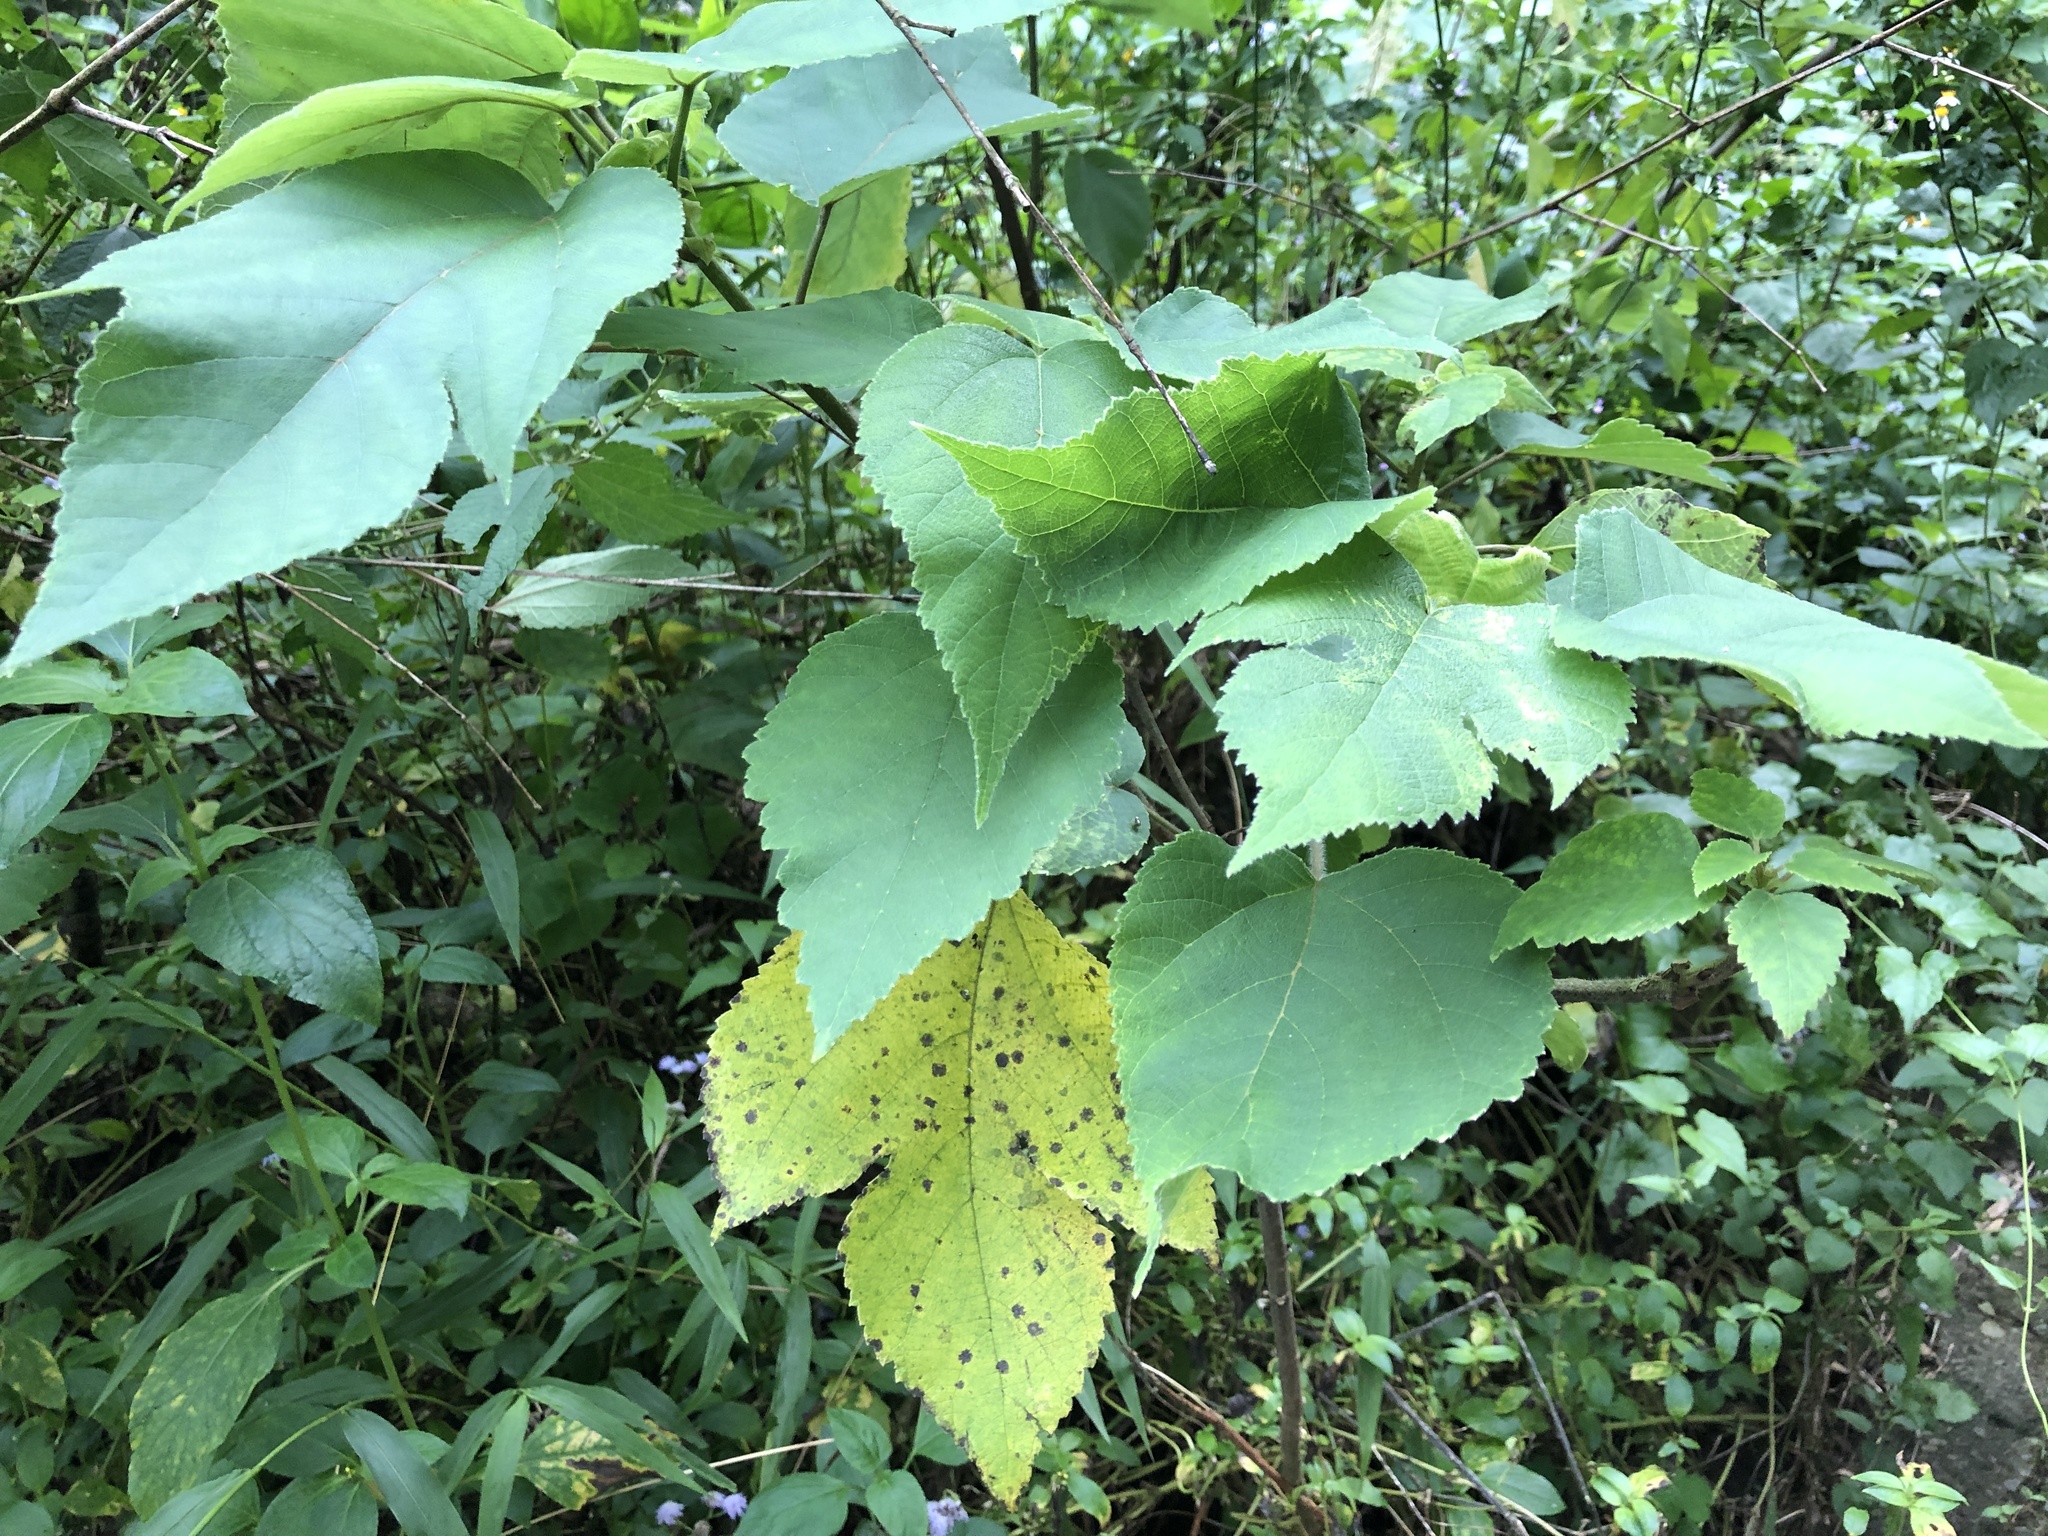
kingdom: Plantae
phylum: Tracheophyta
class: Magnoliopsida
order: Rosales
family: Moraceae
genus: Broussonetia
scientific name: Broussonetia papyrifera
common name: Paper mulberry
